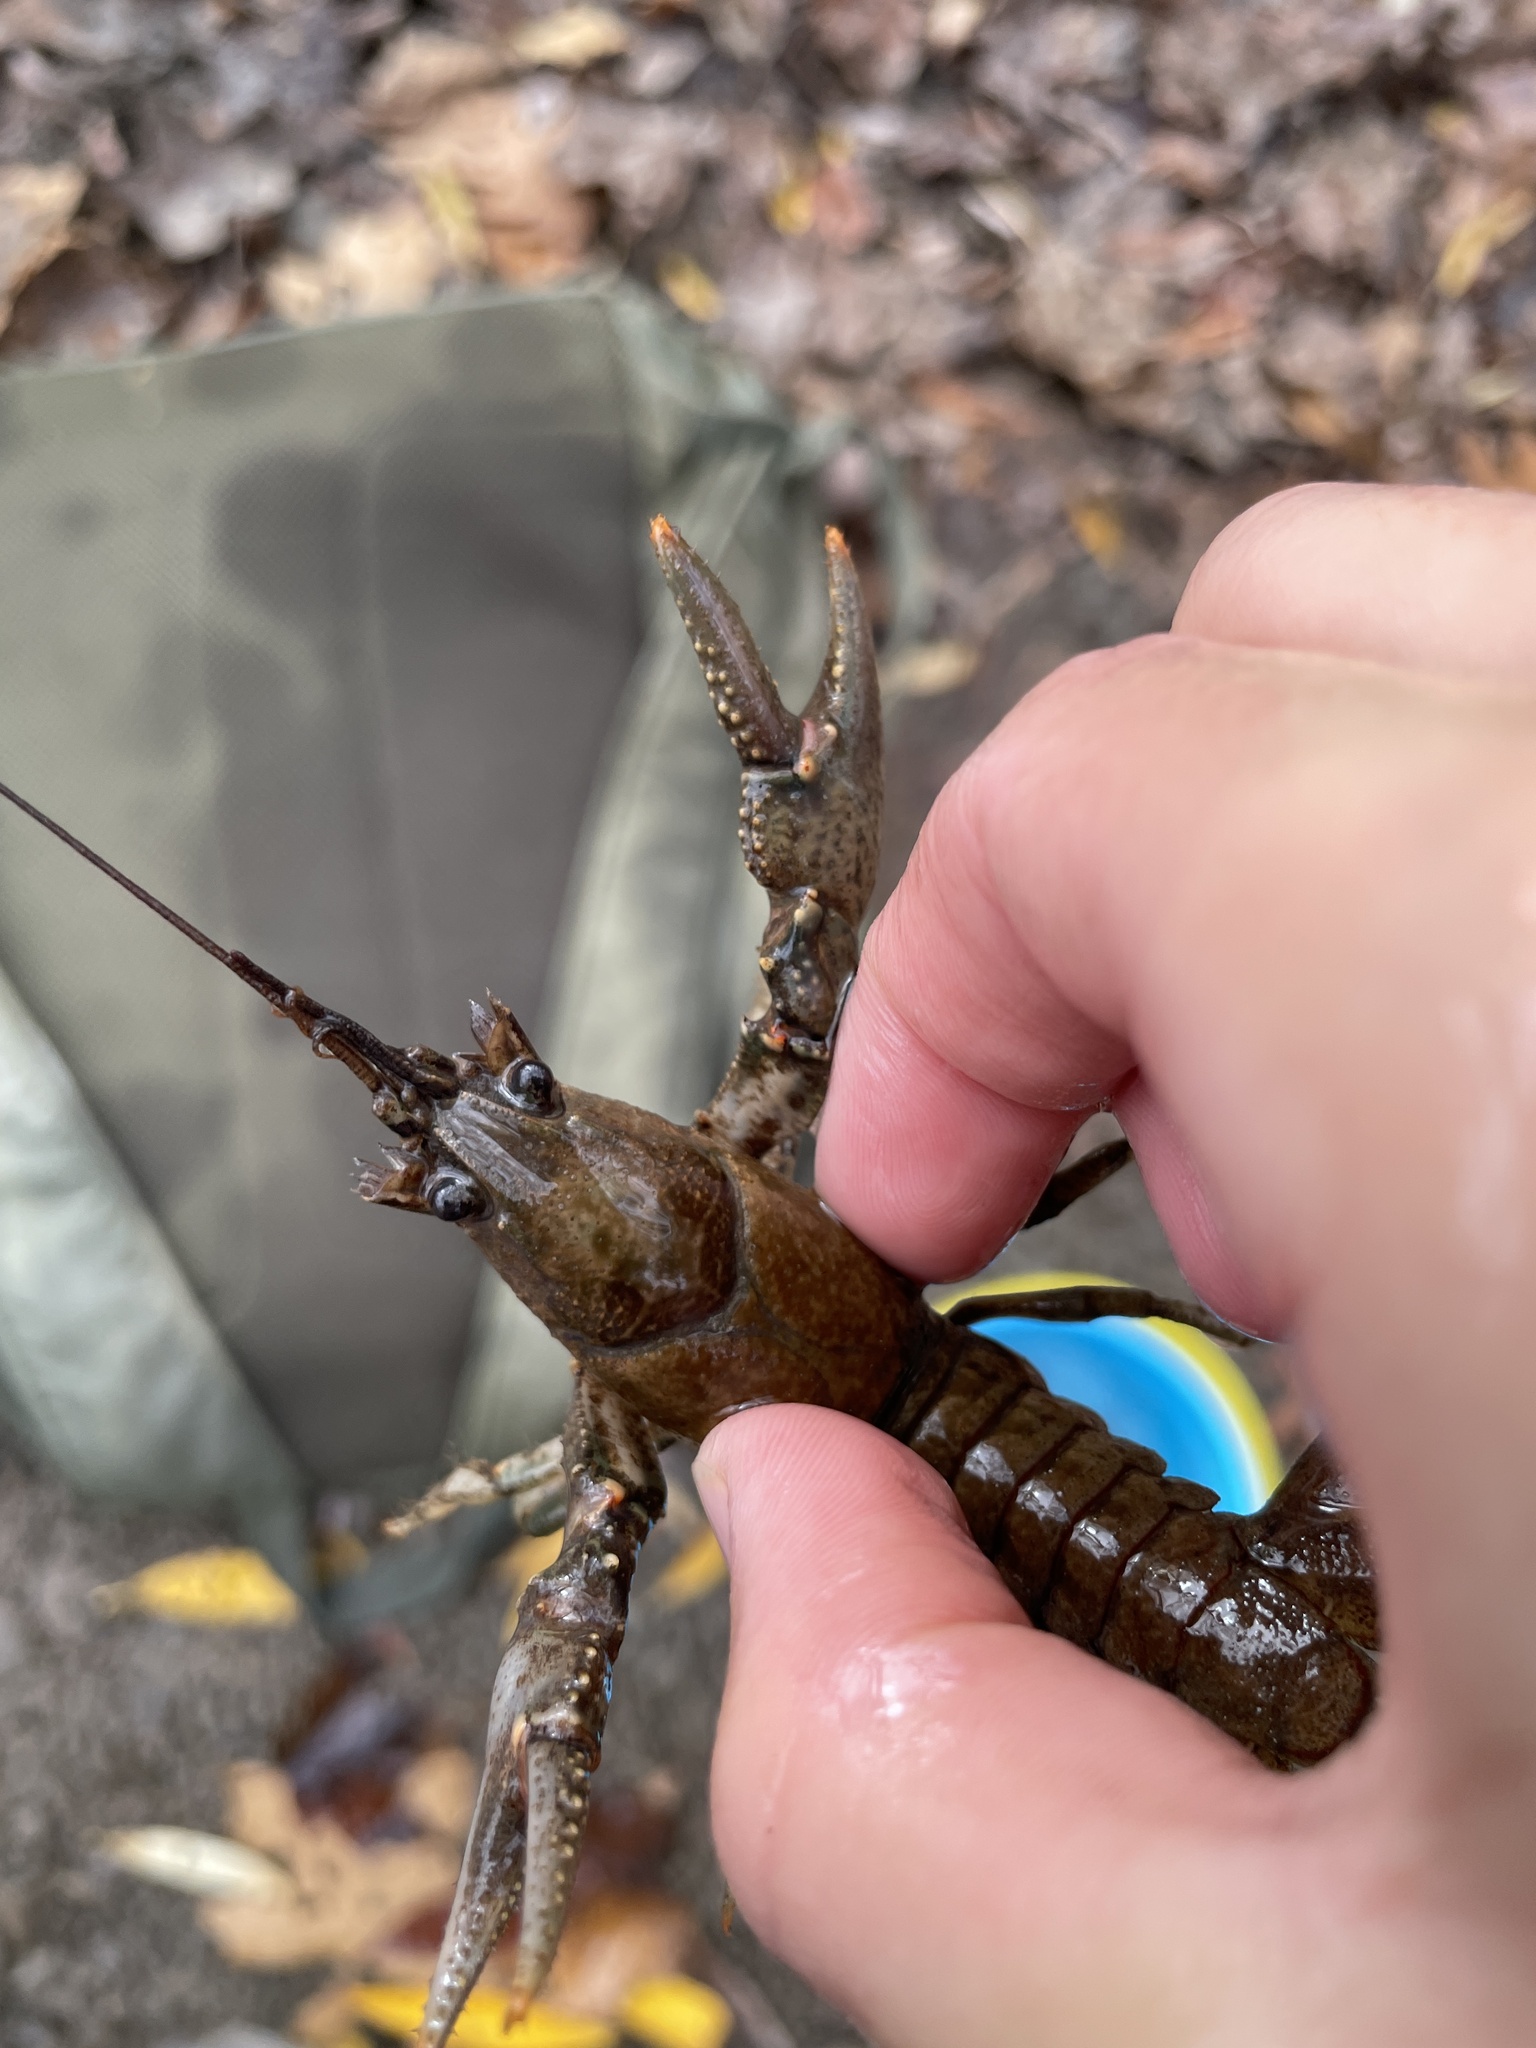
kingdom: Animalia
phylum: Arthropoda
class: Malacostraca
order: Decapoda
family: Cambaridae
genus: Faxonius
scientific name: Faxonius virilis
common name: Virile crayfish
